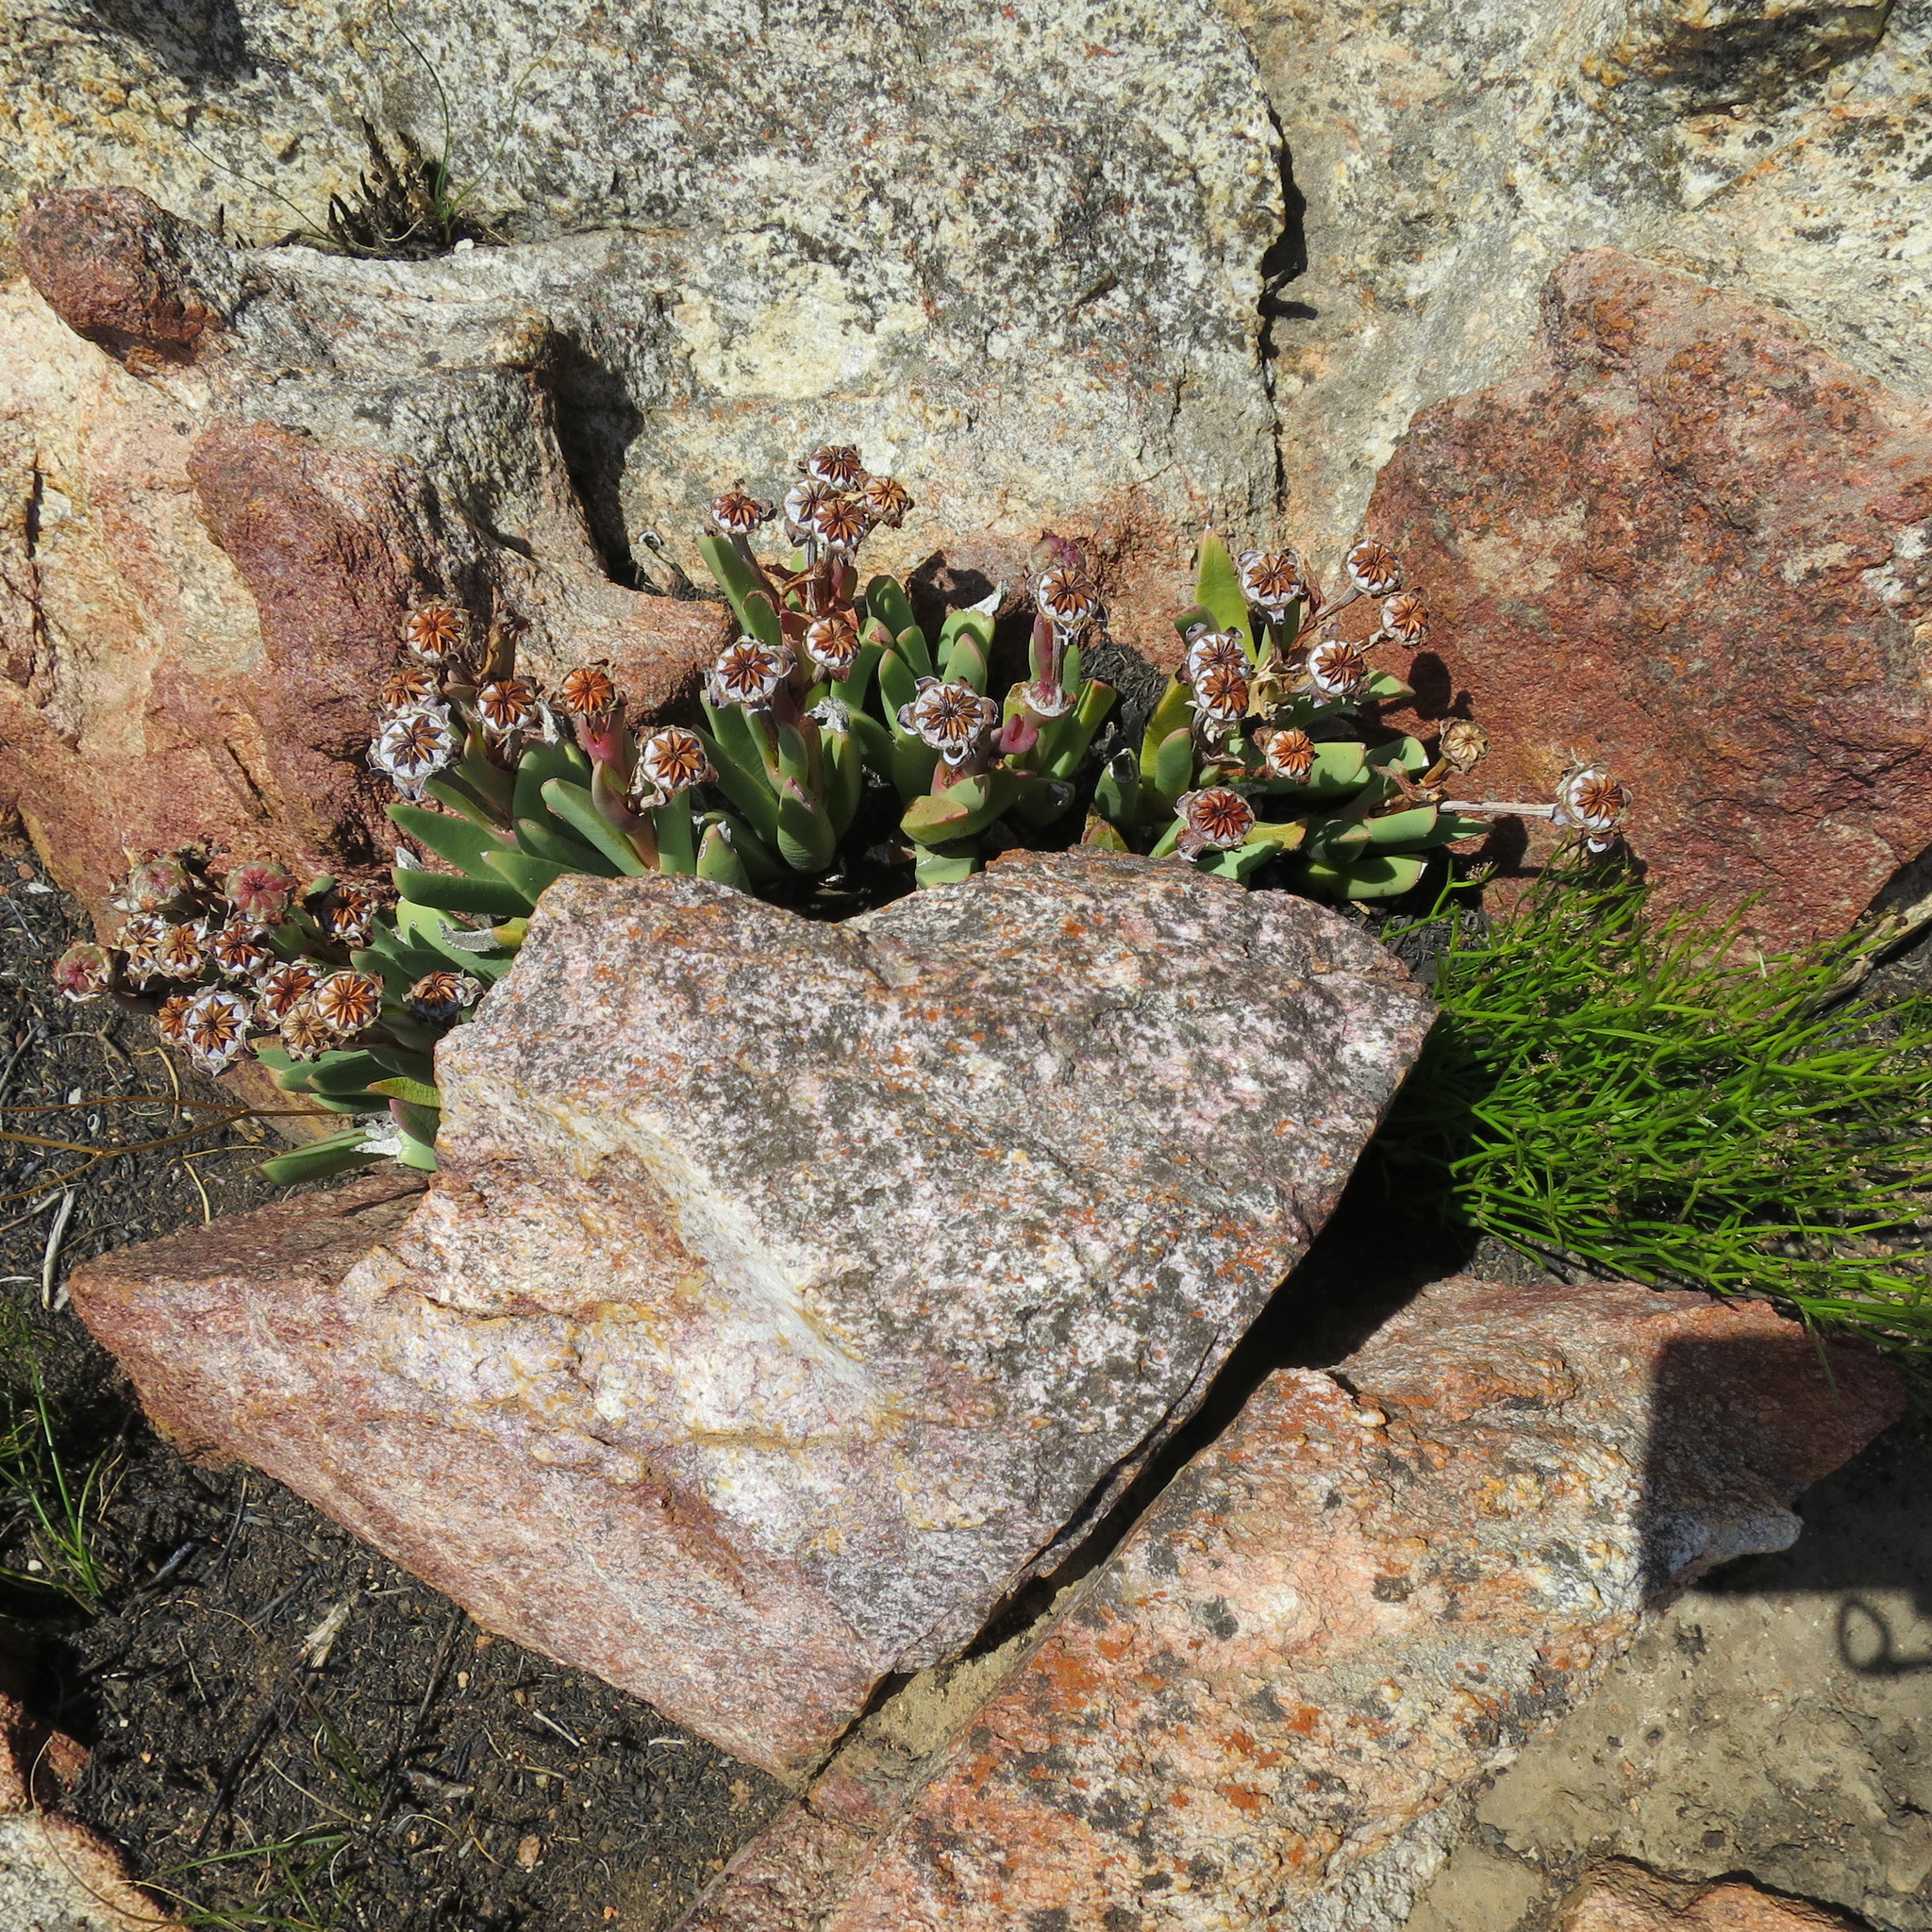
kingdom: Plantae
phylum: Tracheophyta
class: Magnoliopsida
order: Caryophyllales
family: Aizoaceae
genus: Machairophyllum
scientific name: Machairophyllum albidum
